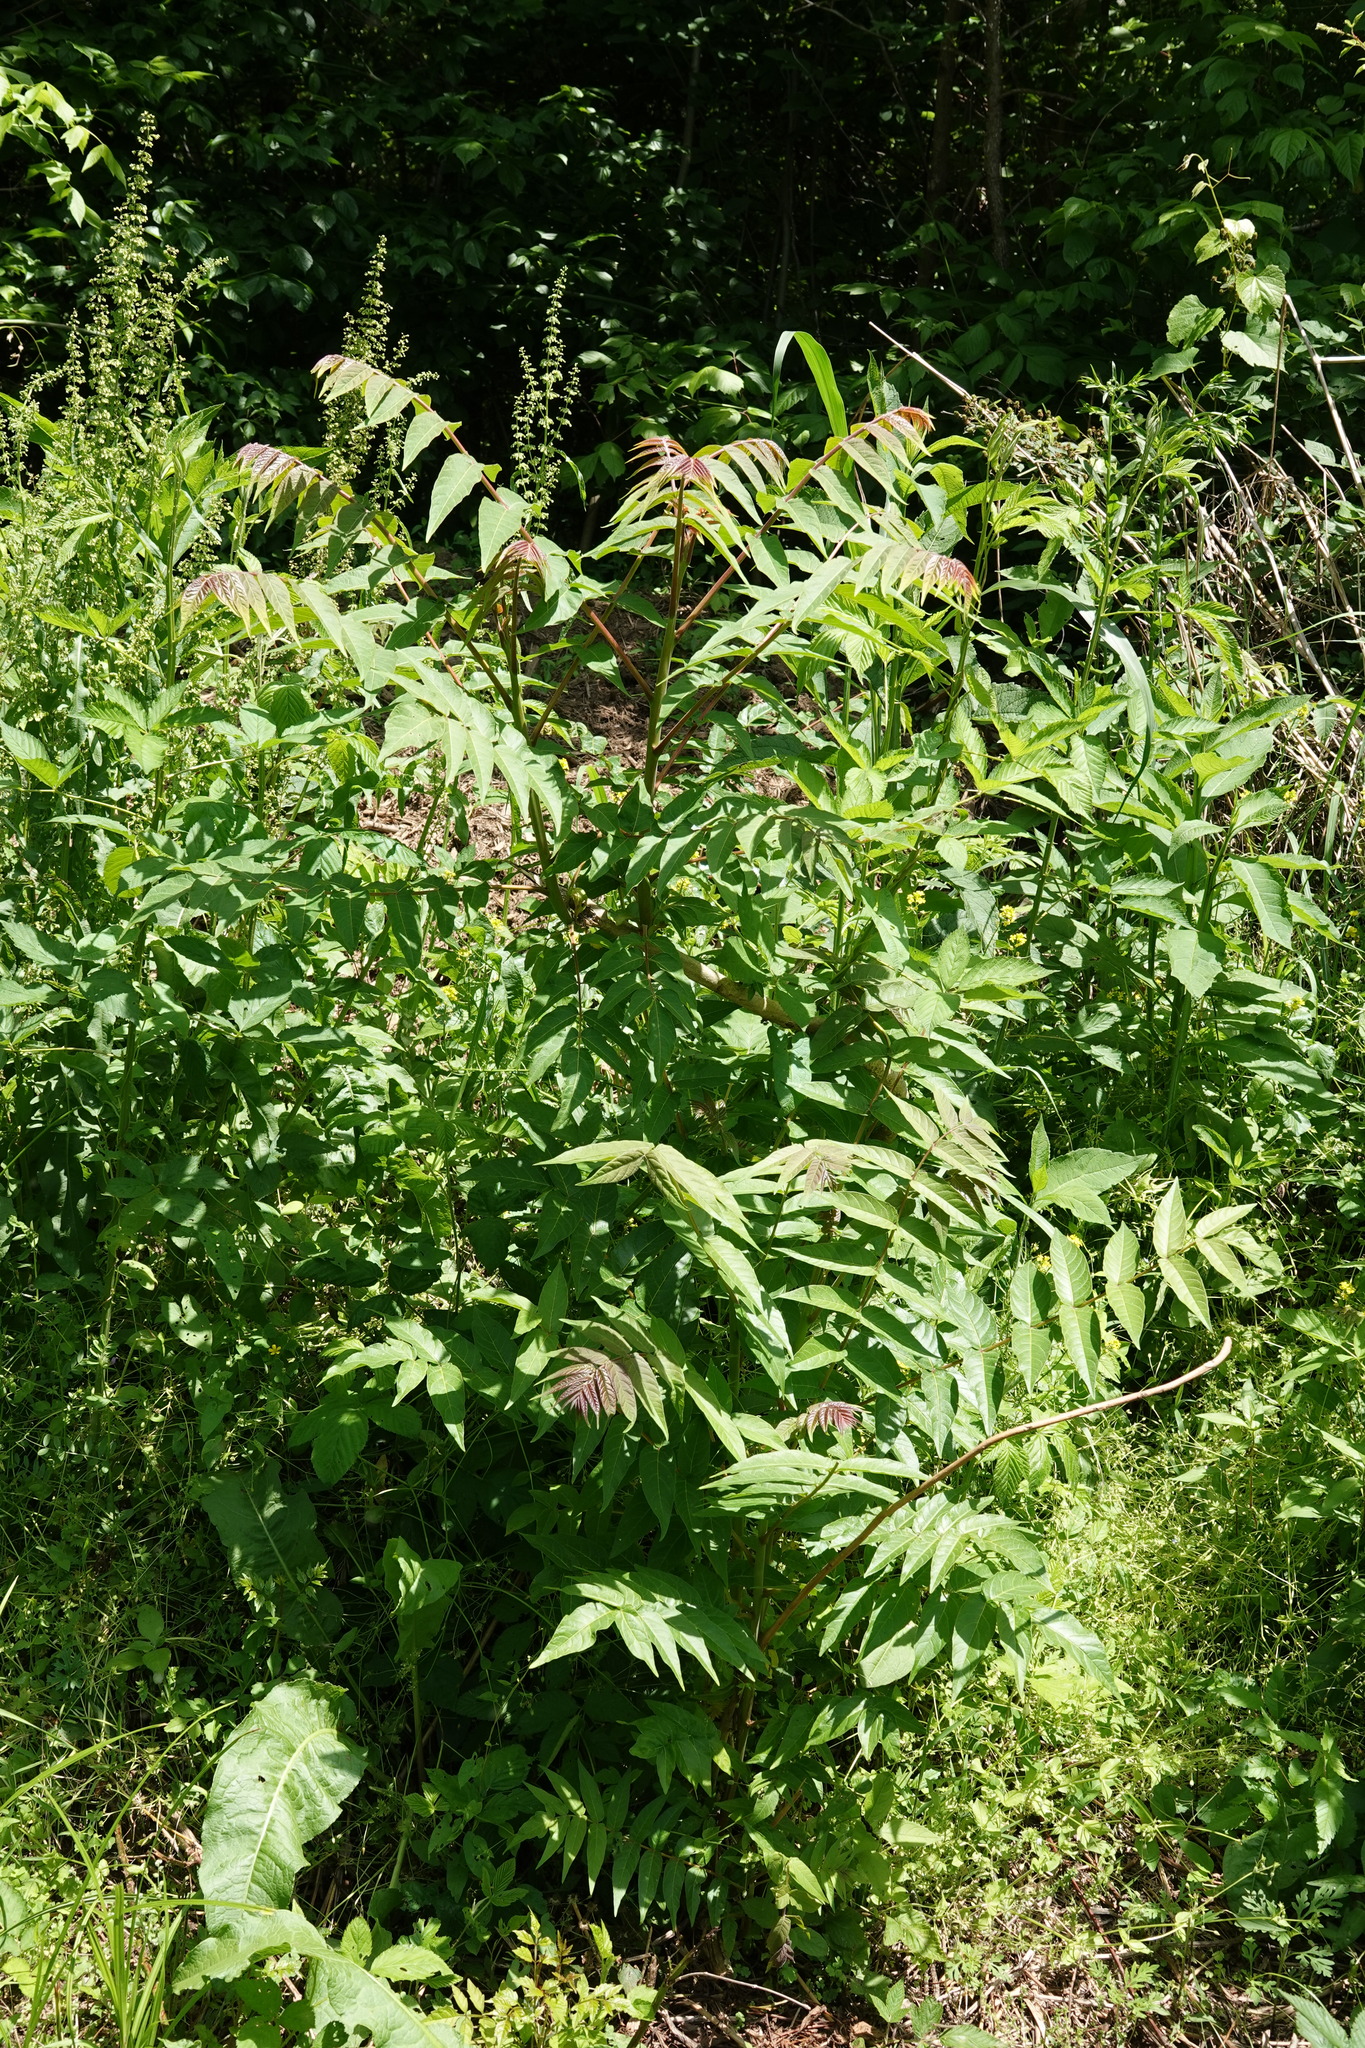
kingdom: Plantae
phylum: Tracheophyta
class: Magnoliopsida
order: Sapindales
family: Simaroubaceae
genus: Ailanthus
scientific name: Ailanthus altissima
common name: Tree-of-heaven
